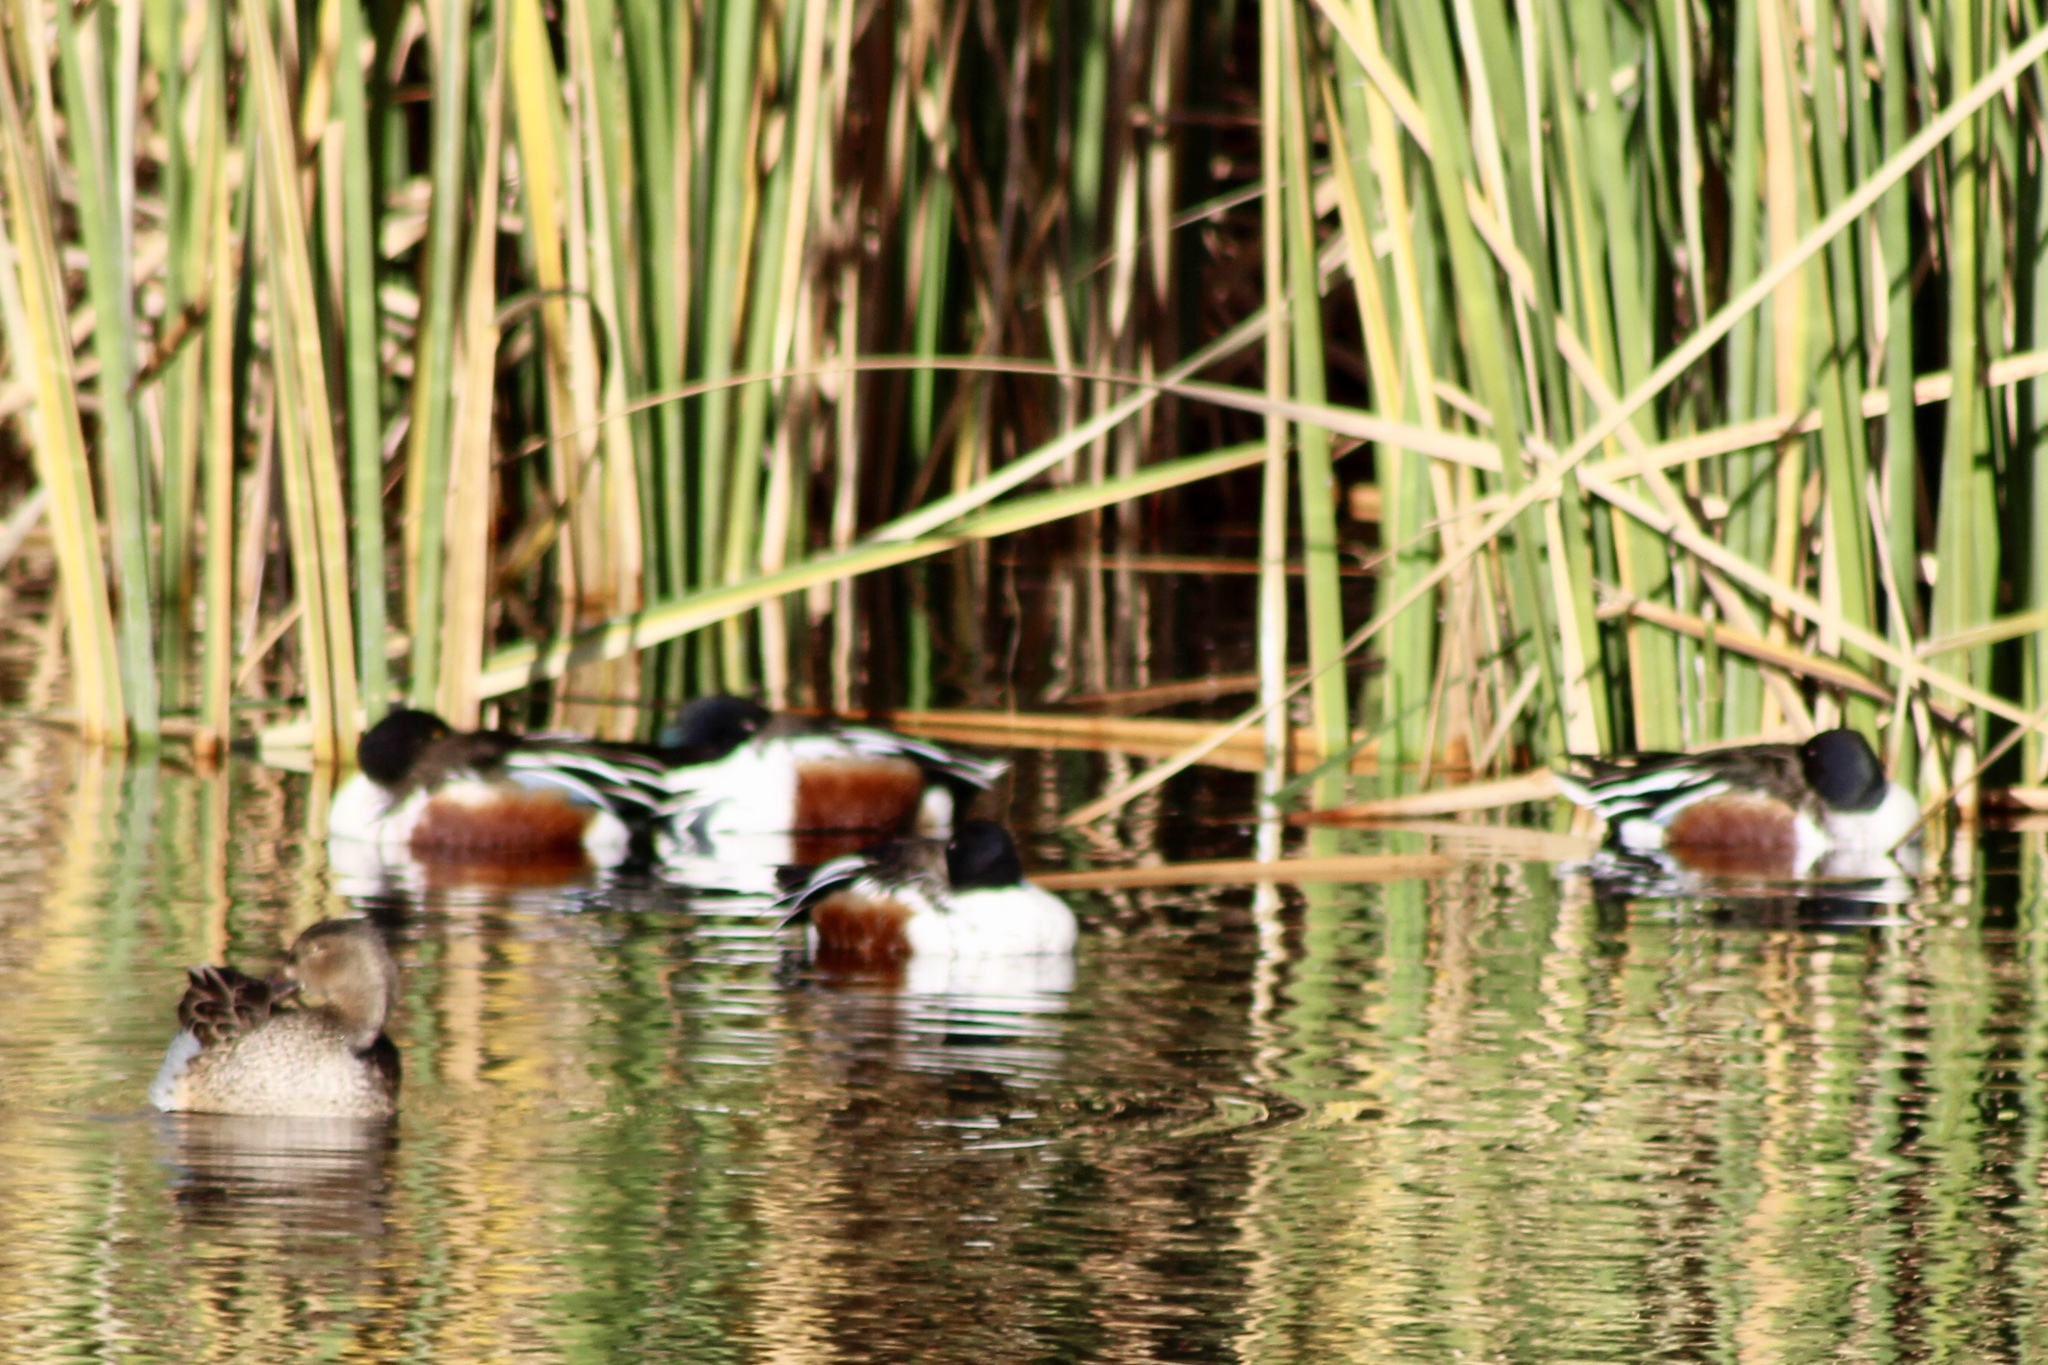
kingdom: Animalia
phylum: Chordata
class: Aves
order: Anseriformes
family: Anatidae
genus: Spatula
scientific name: Spatula clypeata
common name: Northern shoveler
